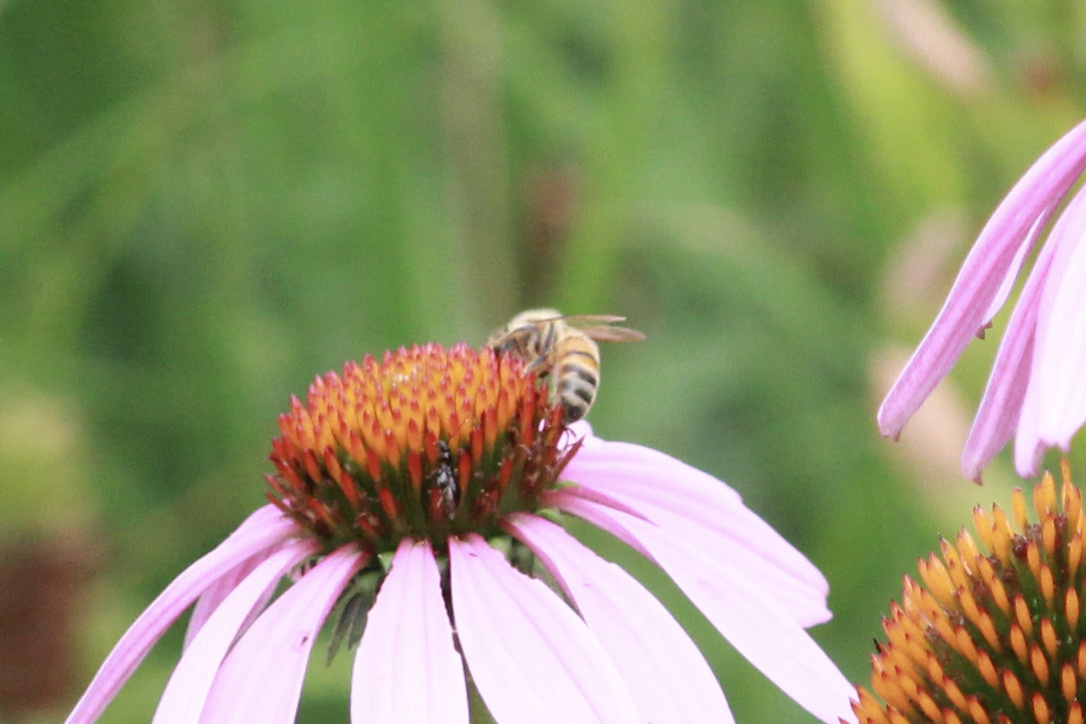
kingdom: Animalia
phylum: Arthropoda
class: Insecta
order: Hymenoptera
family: Apidae
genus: Apis
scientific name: Apis mellifera
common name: Honey bee
